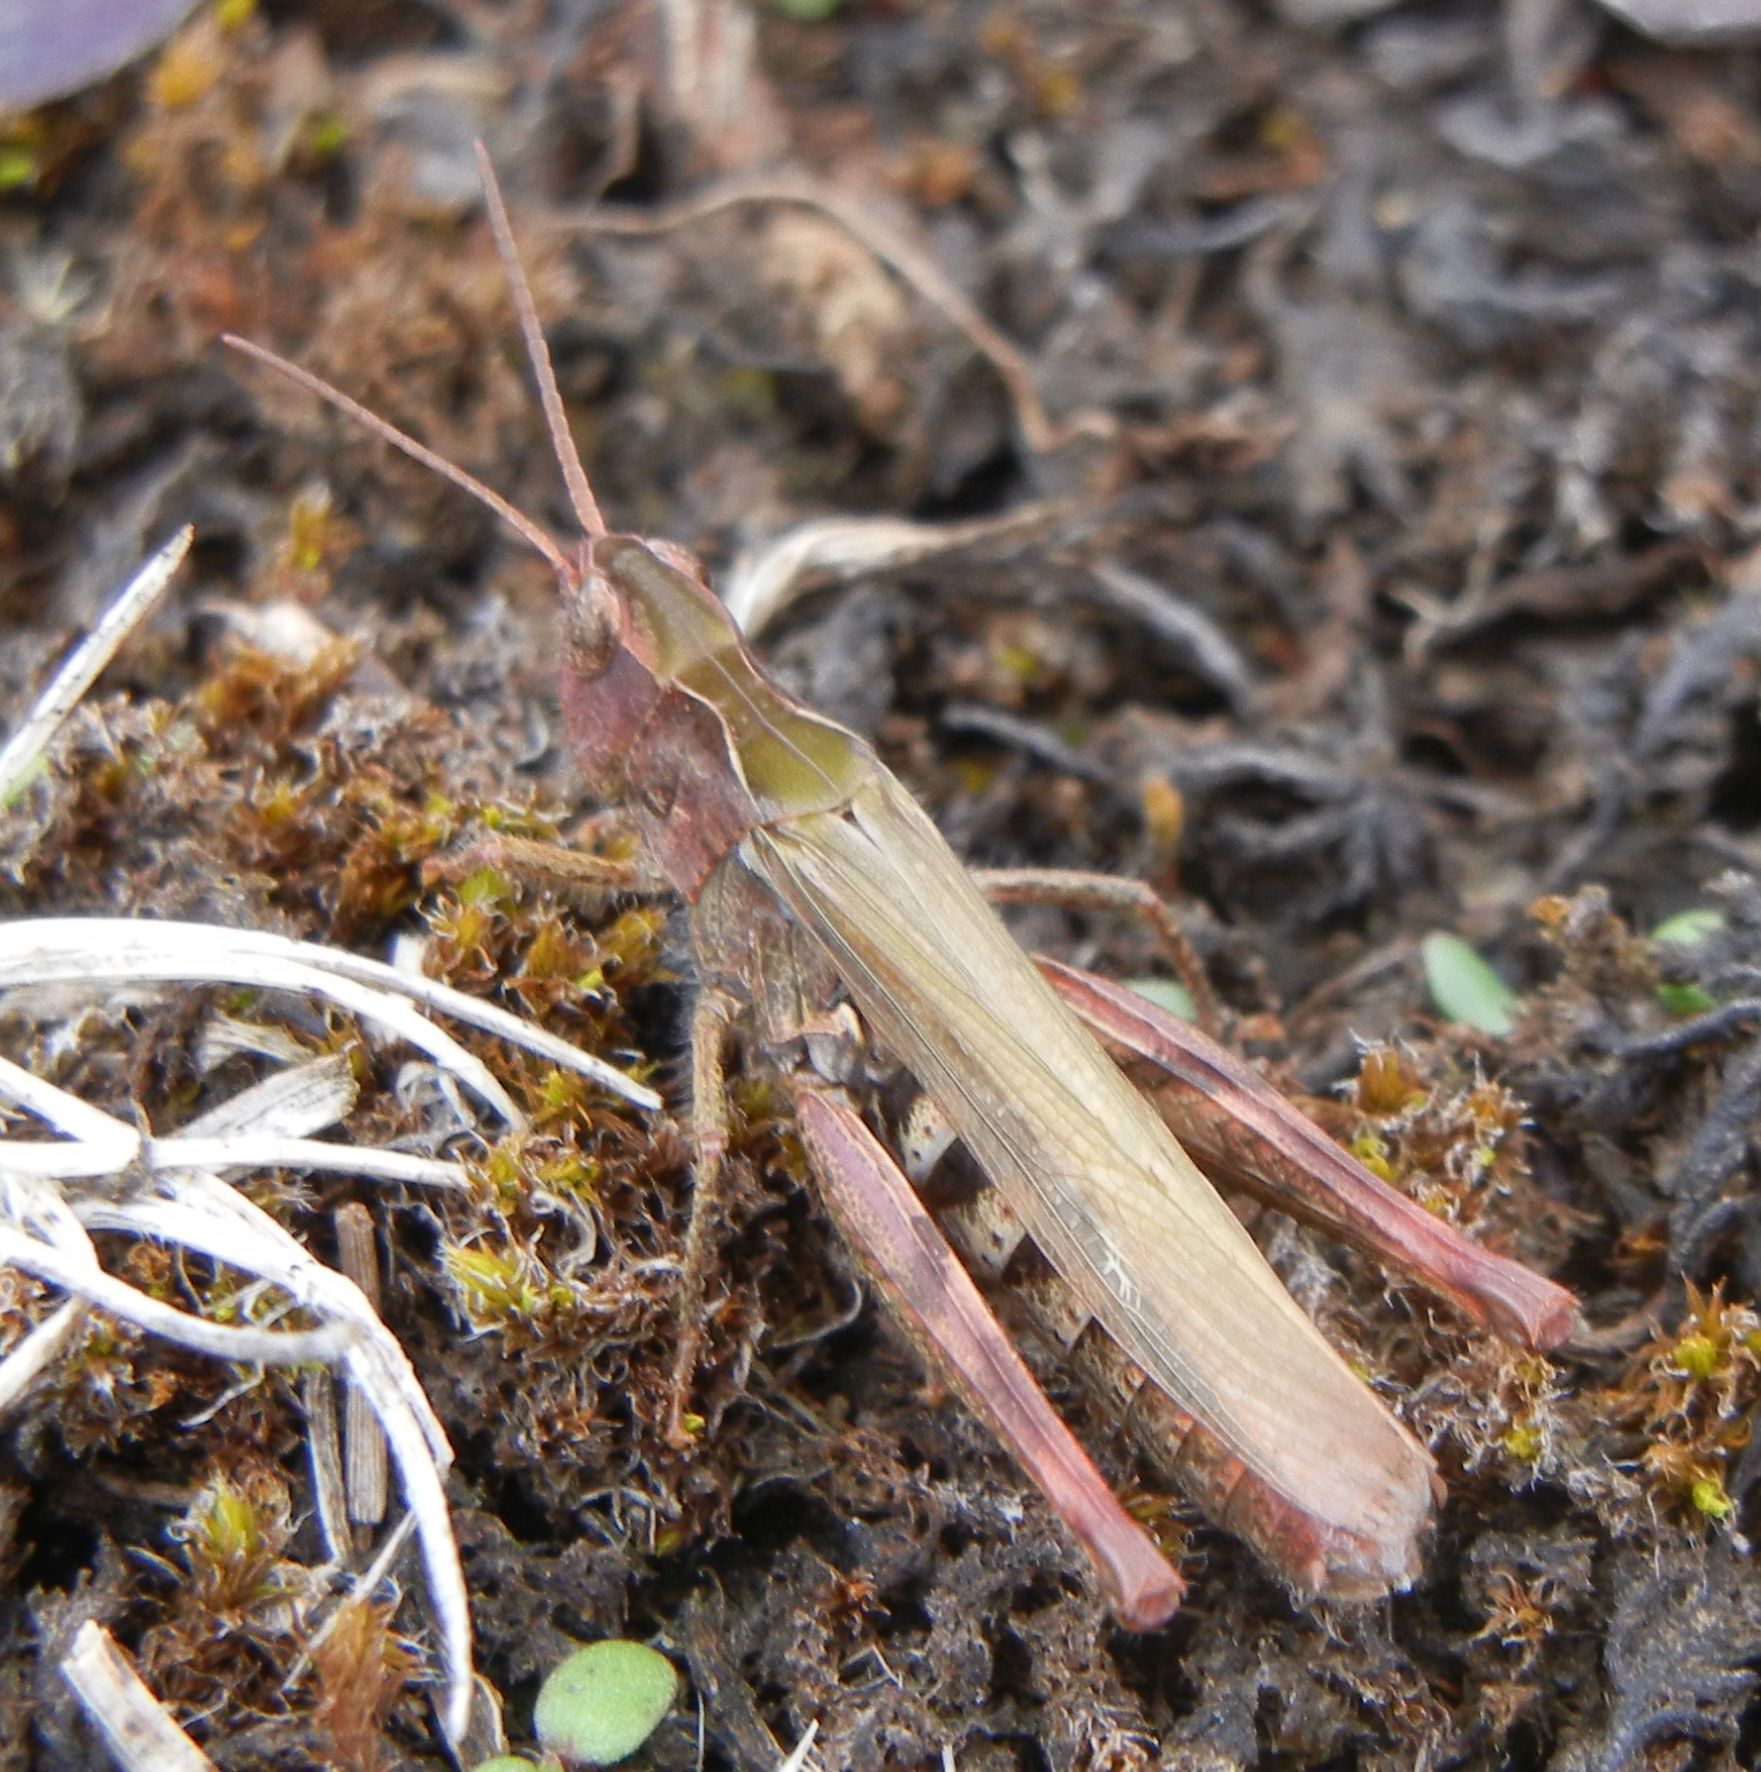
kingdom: Animalia
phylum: Arthropoda
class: Insecta
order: Orthoptera
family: Acrididae
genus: Chorthippus
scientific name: Chorthippus brunneus
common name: Field grasshopper
